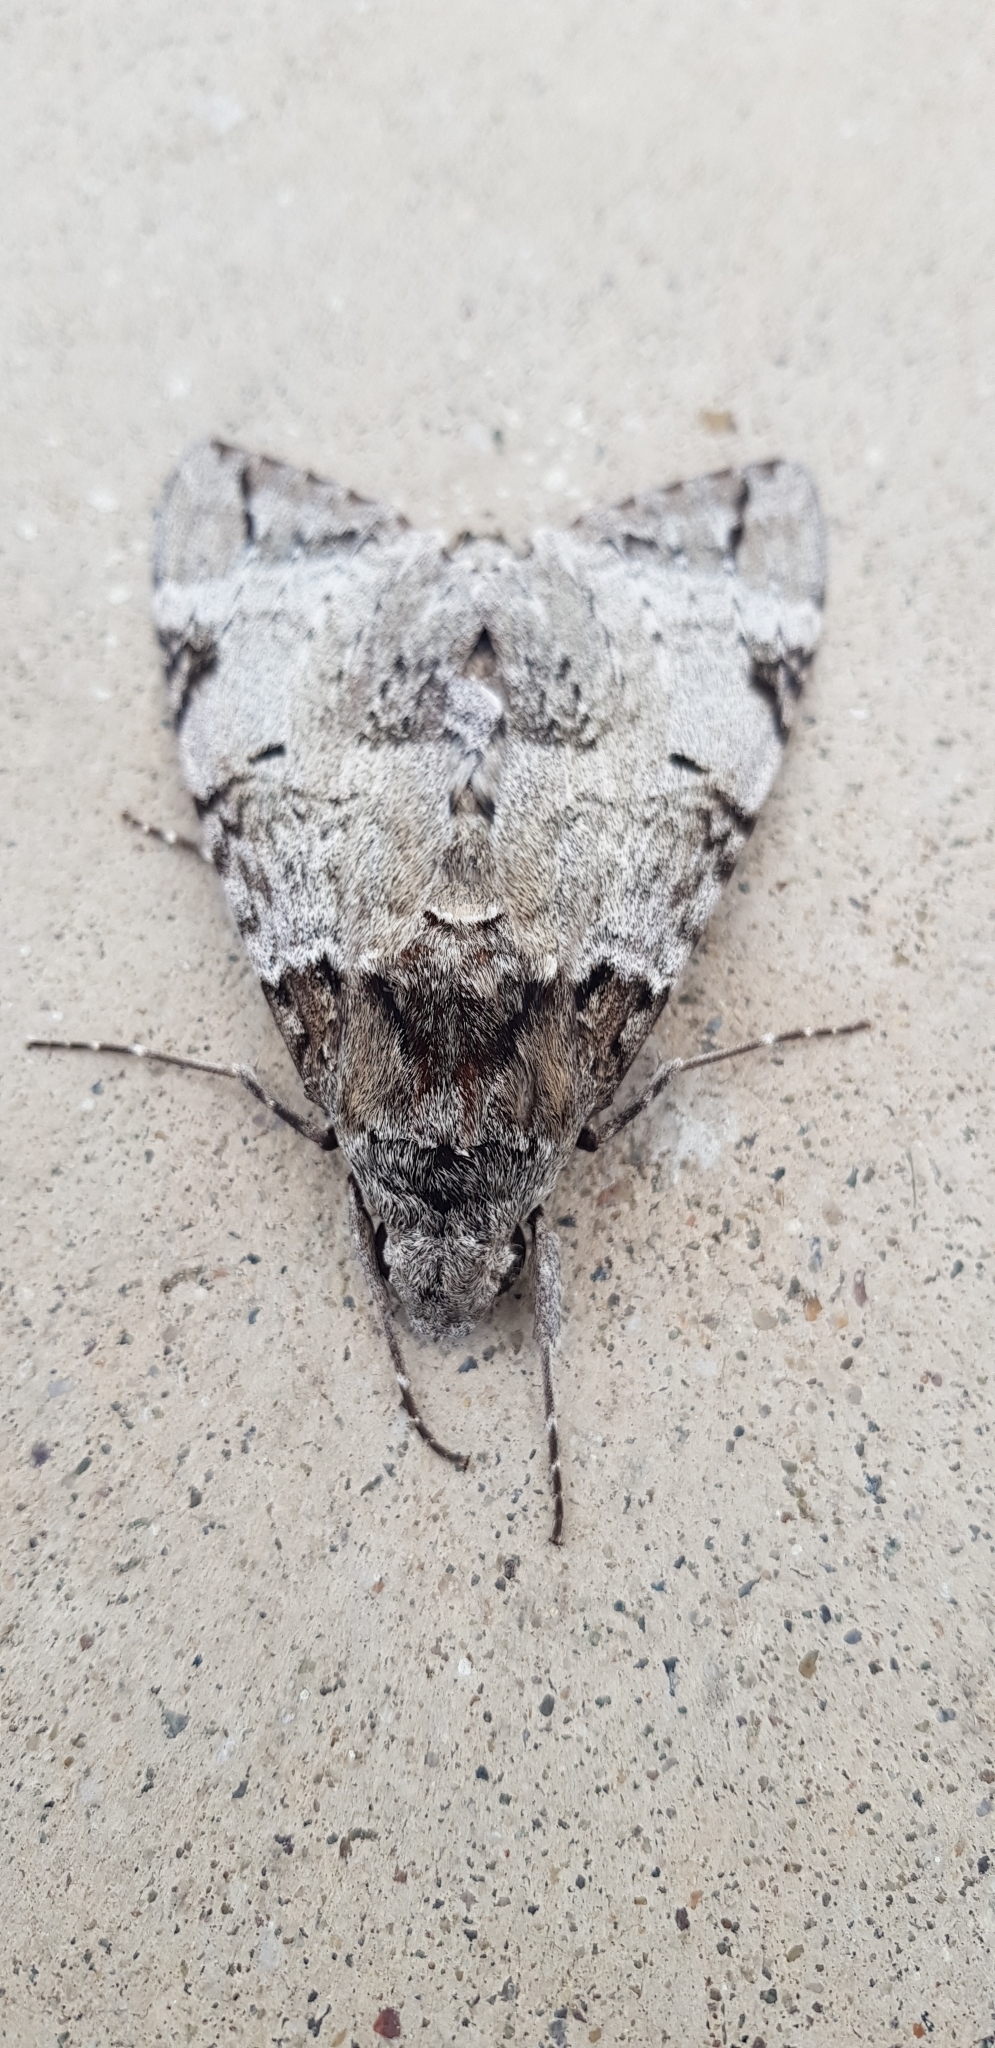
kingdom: Animalia
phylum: Arthropoda
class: Insecta
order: Lepidoptera
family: Sphingidae
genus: Pseudosphinx
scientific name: Pseudosphinx tetrio
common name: Tetrio sphinx
